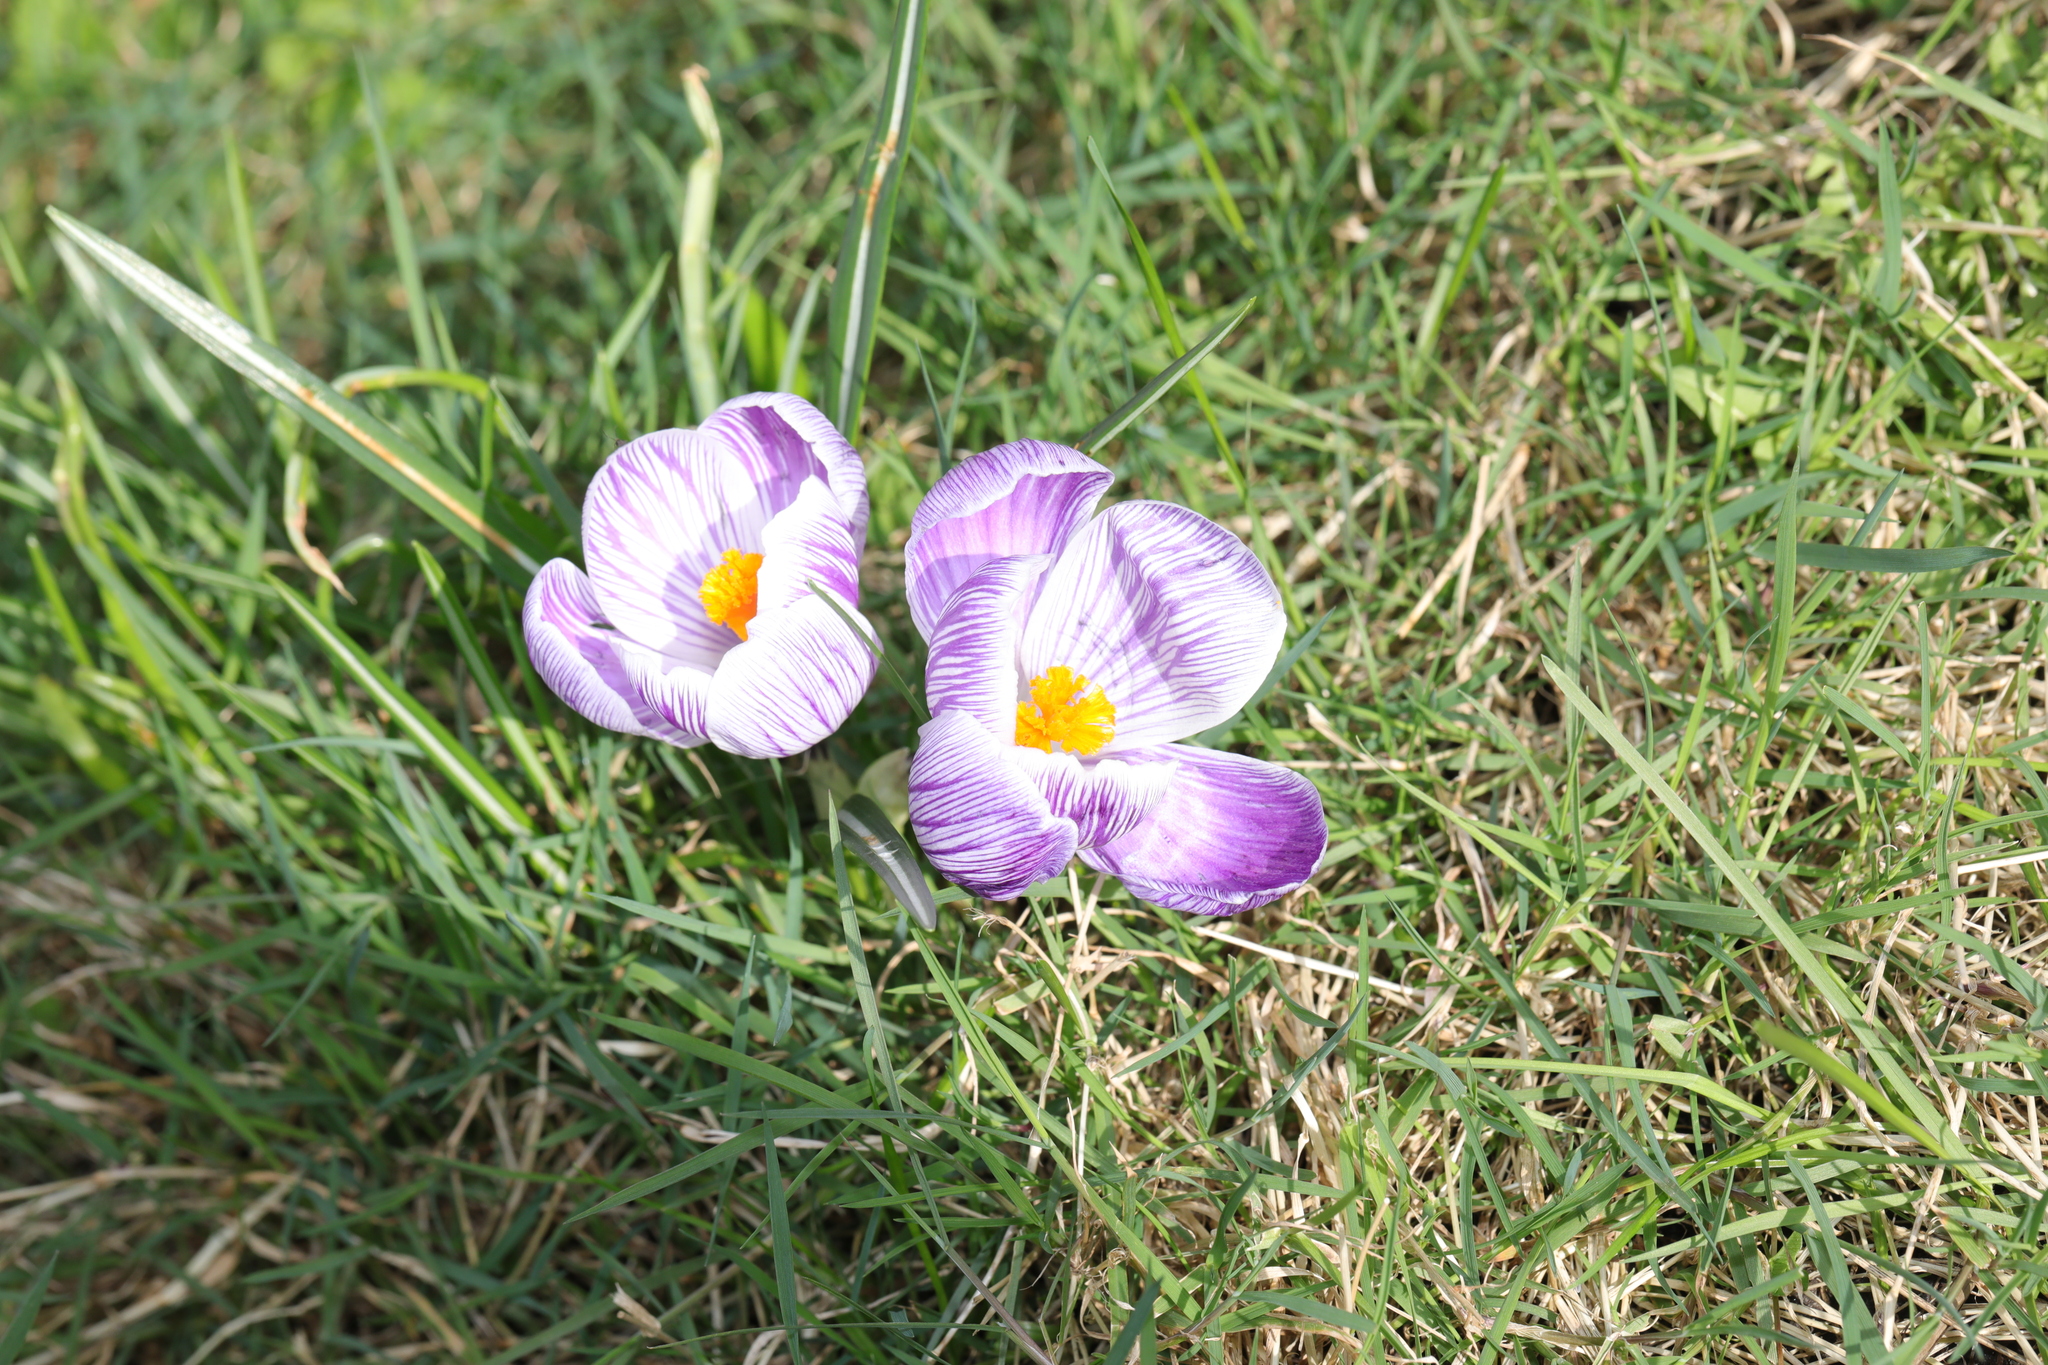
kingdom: Plantae
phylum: Tracheophyta
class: Liliopsida
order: Asparagales
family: Iridaceae
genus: Crocus
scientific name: Crocus neapolitanus
